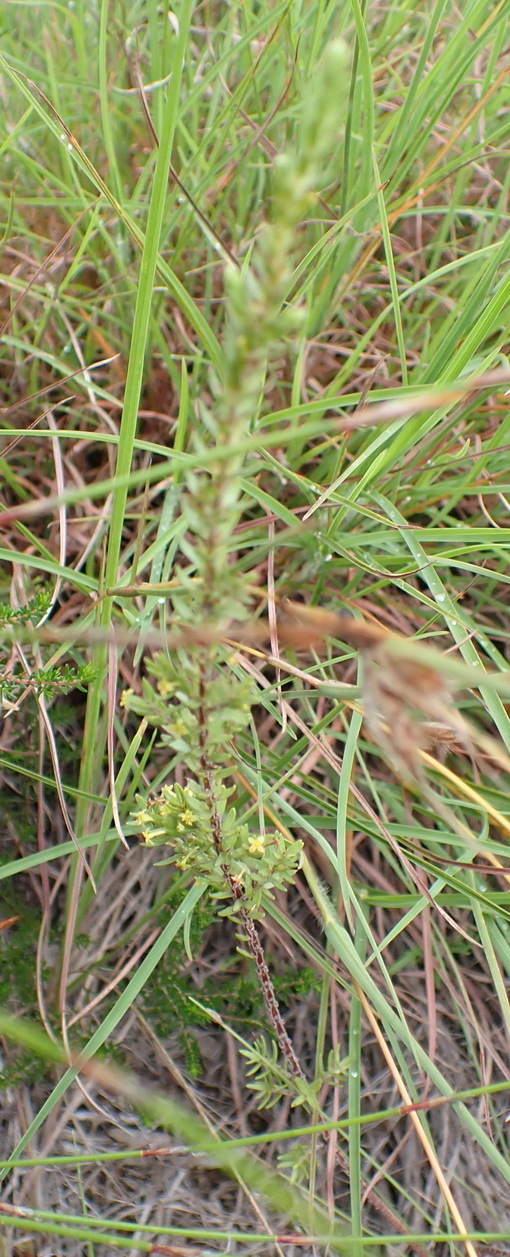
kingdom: Plantae
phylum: Tracheophyta
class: Magnoliopsida
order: Malvales
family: Thymelaeaceae
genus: Struthiola
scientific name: Struthiola parviflora
